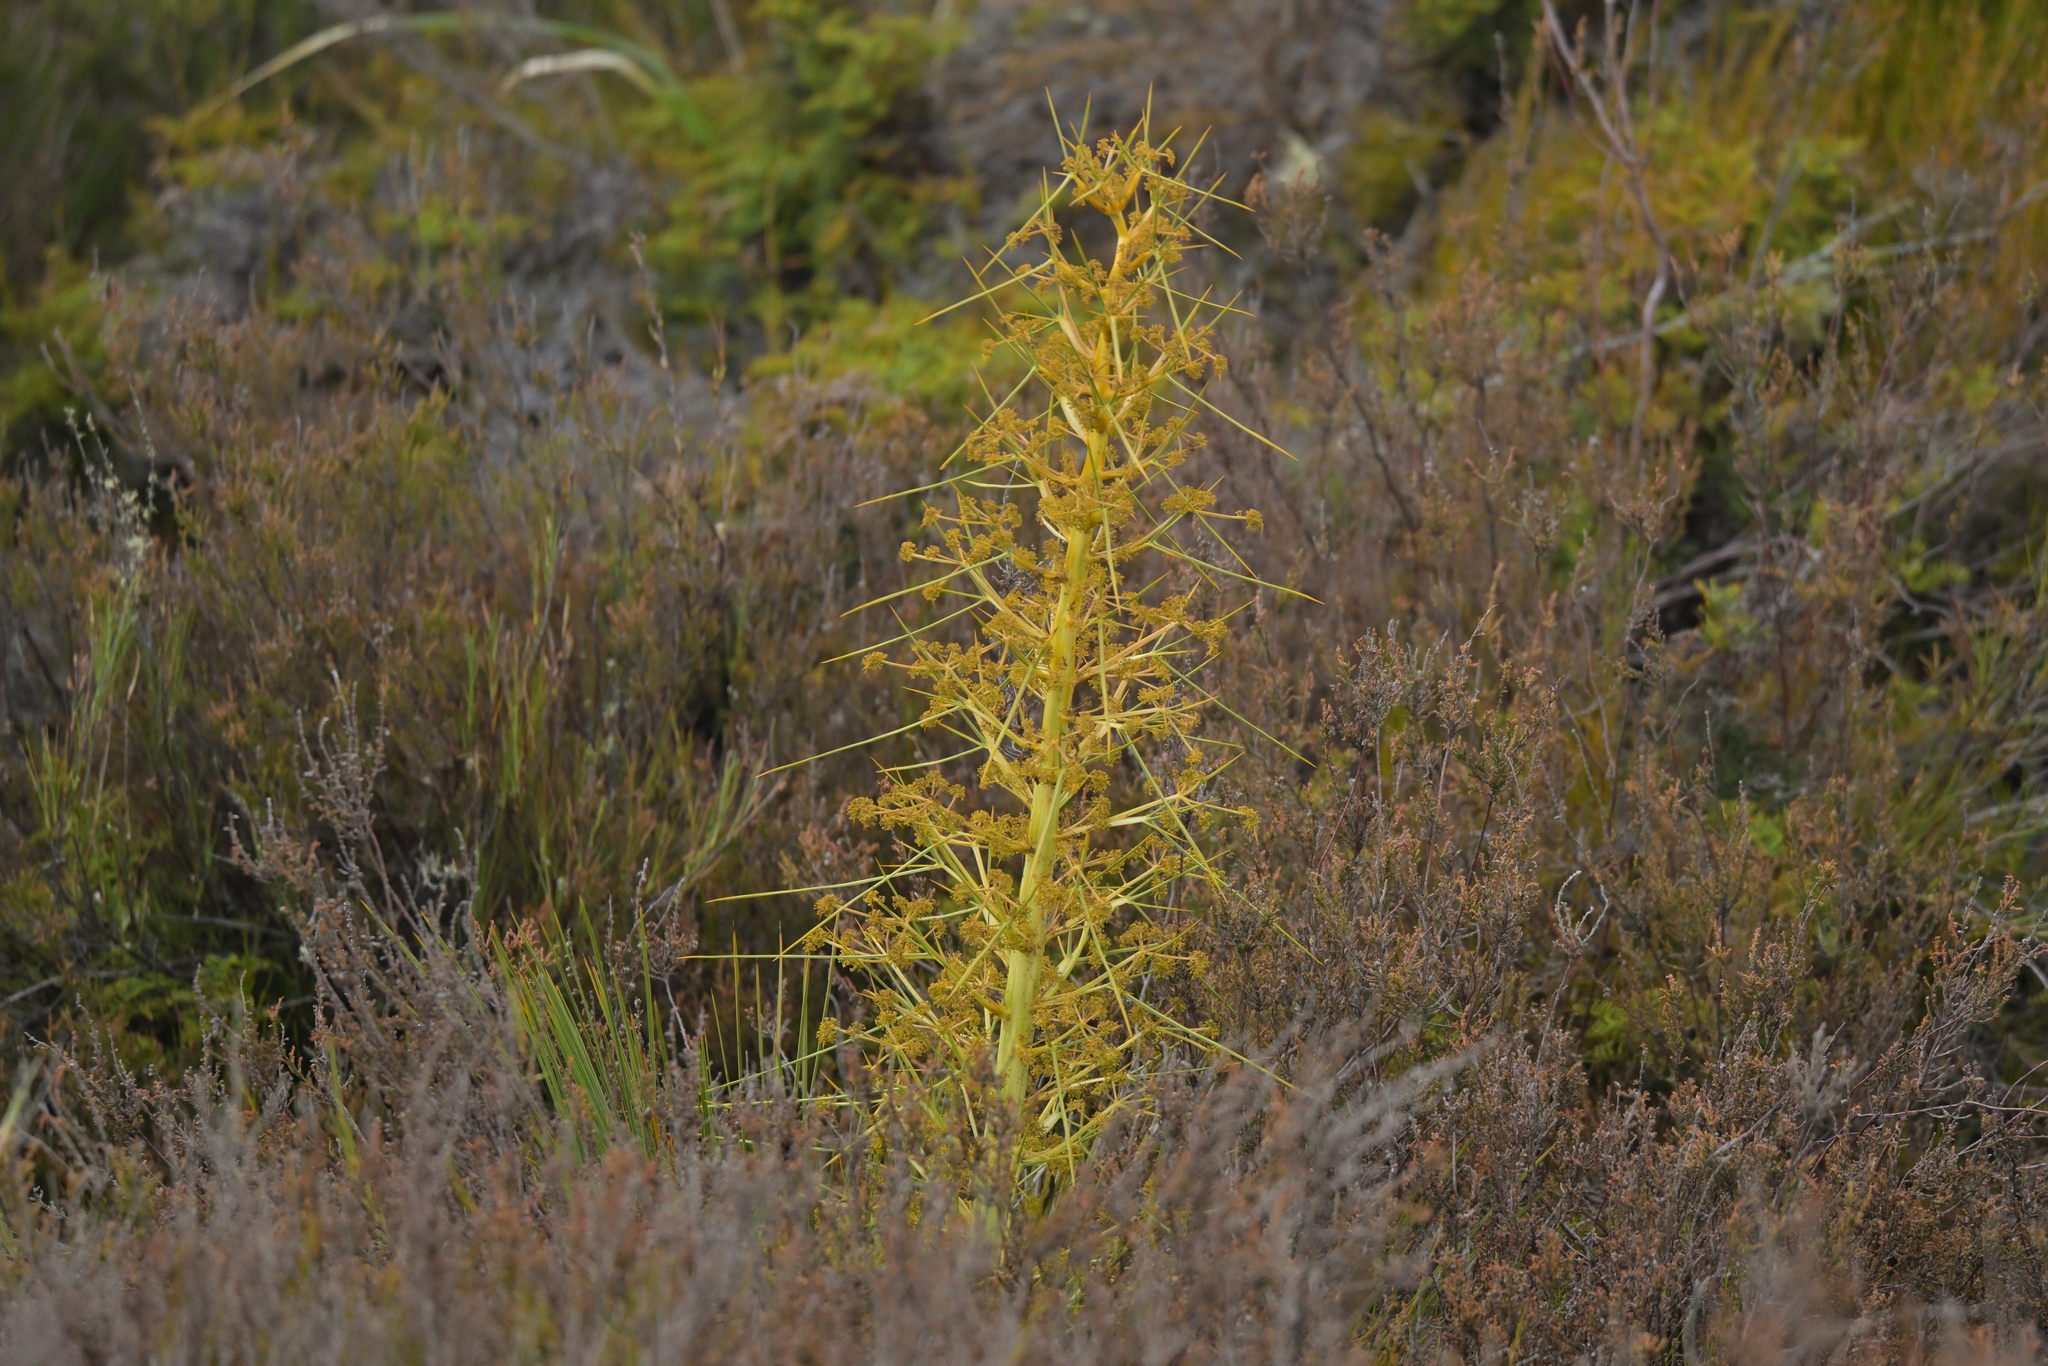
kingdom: Plantae
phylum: Tracheophyta
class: Magnoliopsida
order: Apiales
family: Apiaceae
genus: Aciphylla
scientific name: Aciphylla squarrosa
